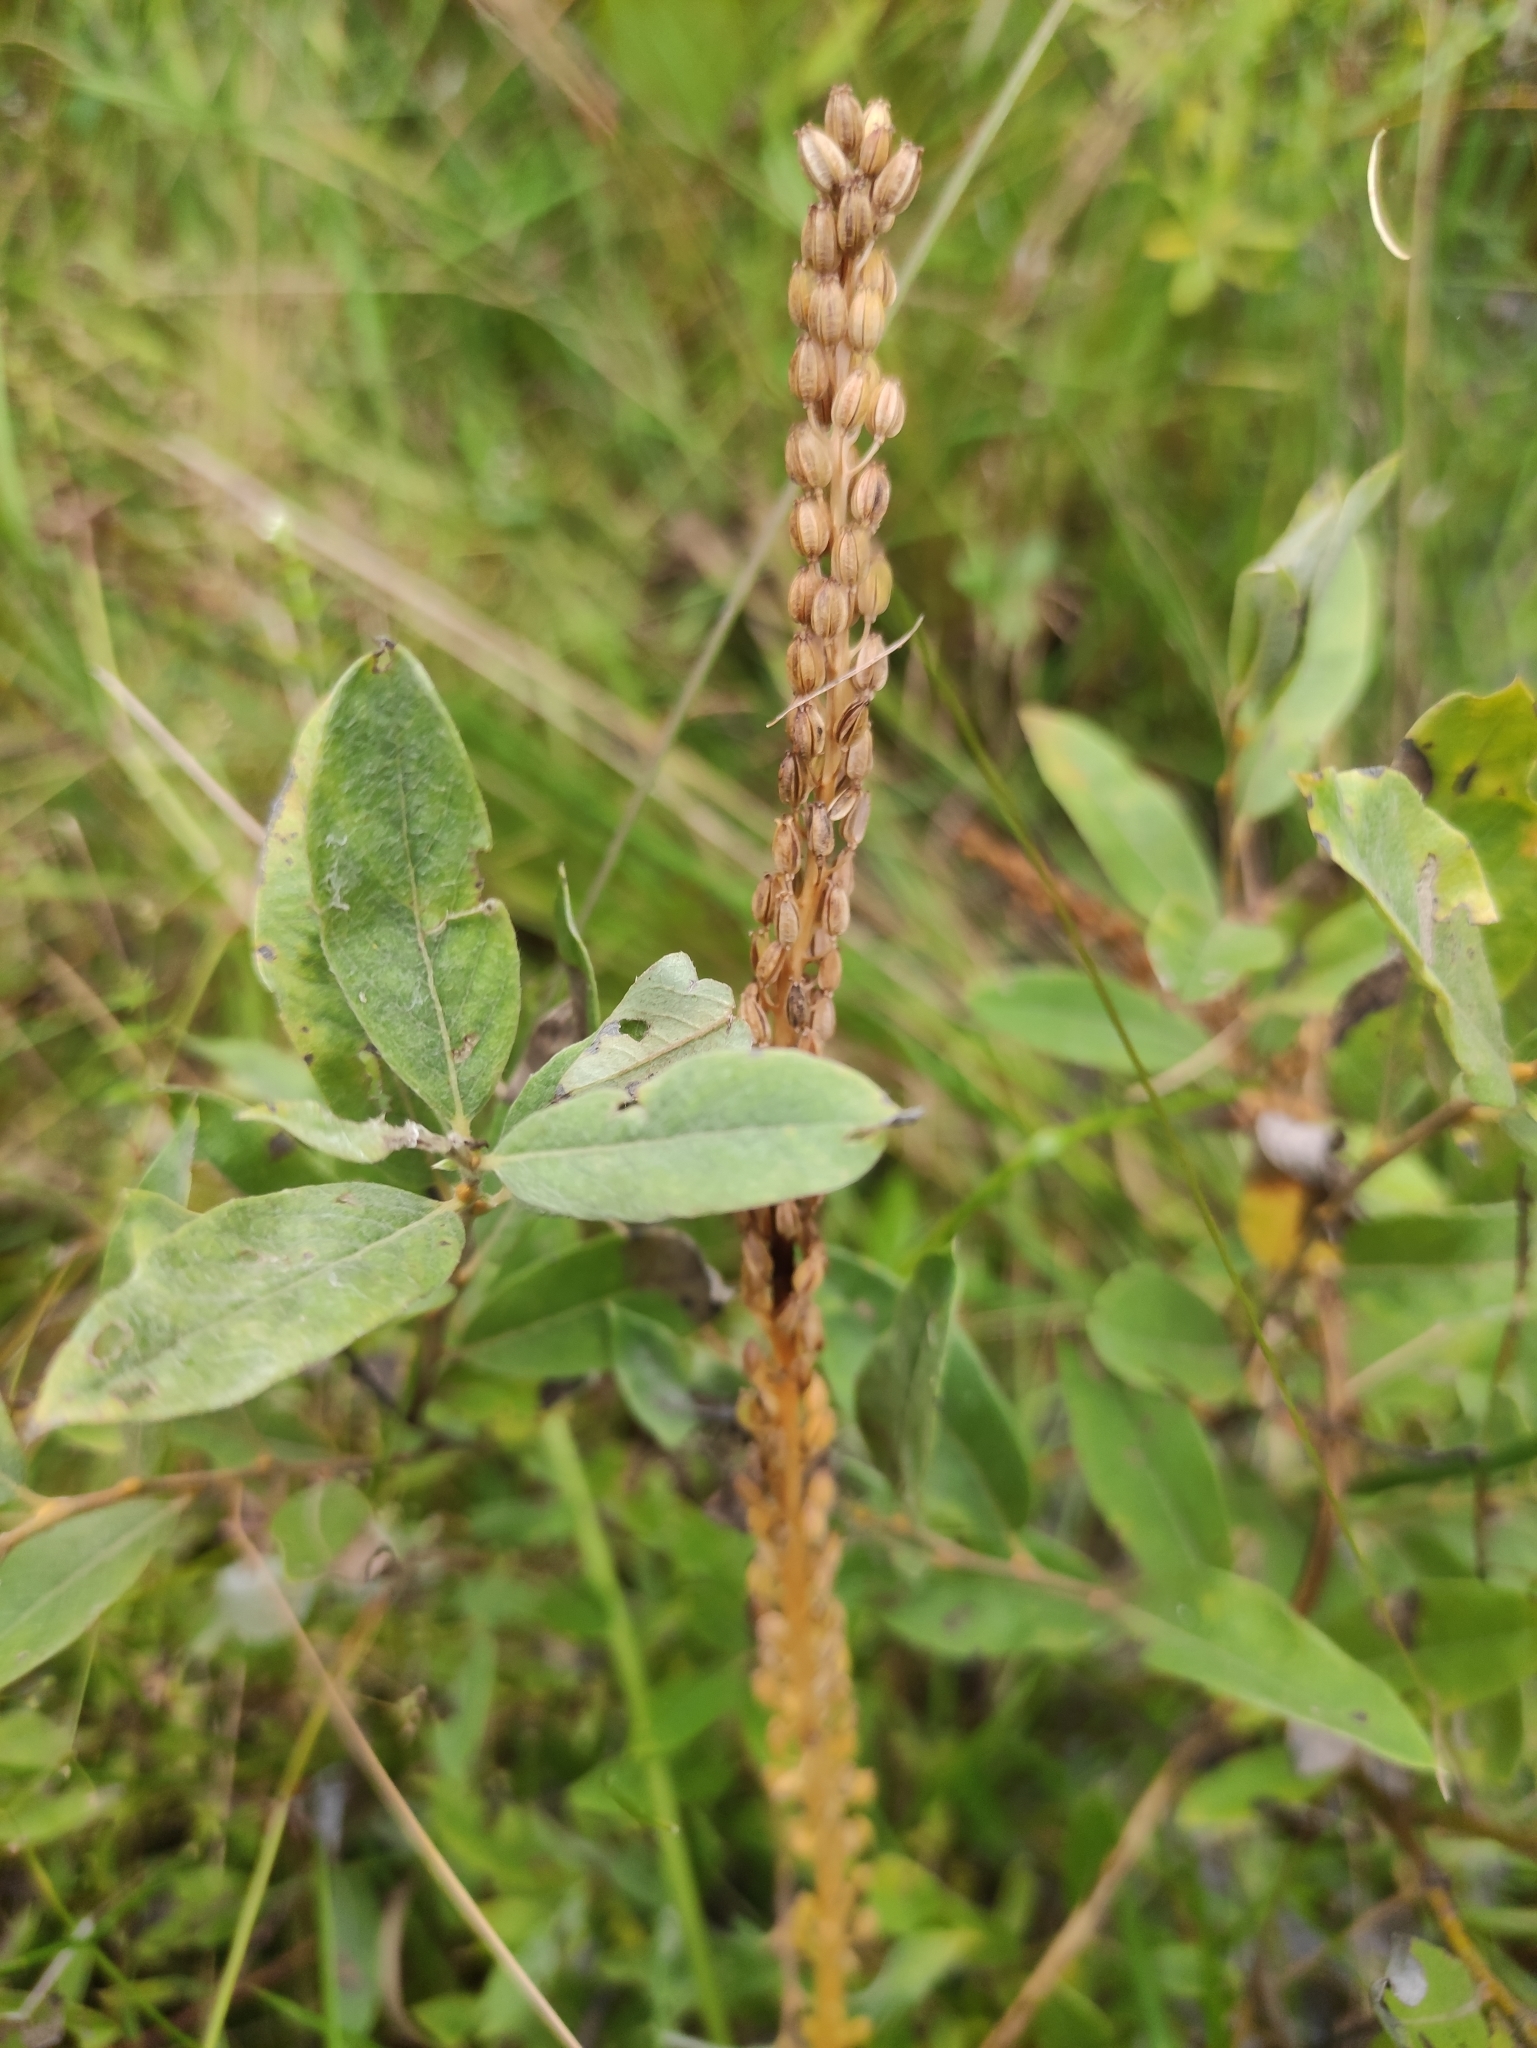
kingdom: Plantae
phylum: Tracheophyta
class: Liliopsida
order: Alismatales
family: Juncaginaceae
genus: Triglochin
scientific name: Triglochin maritima
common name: Sea arrowgrass
